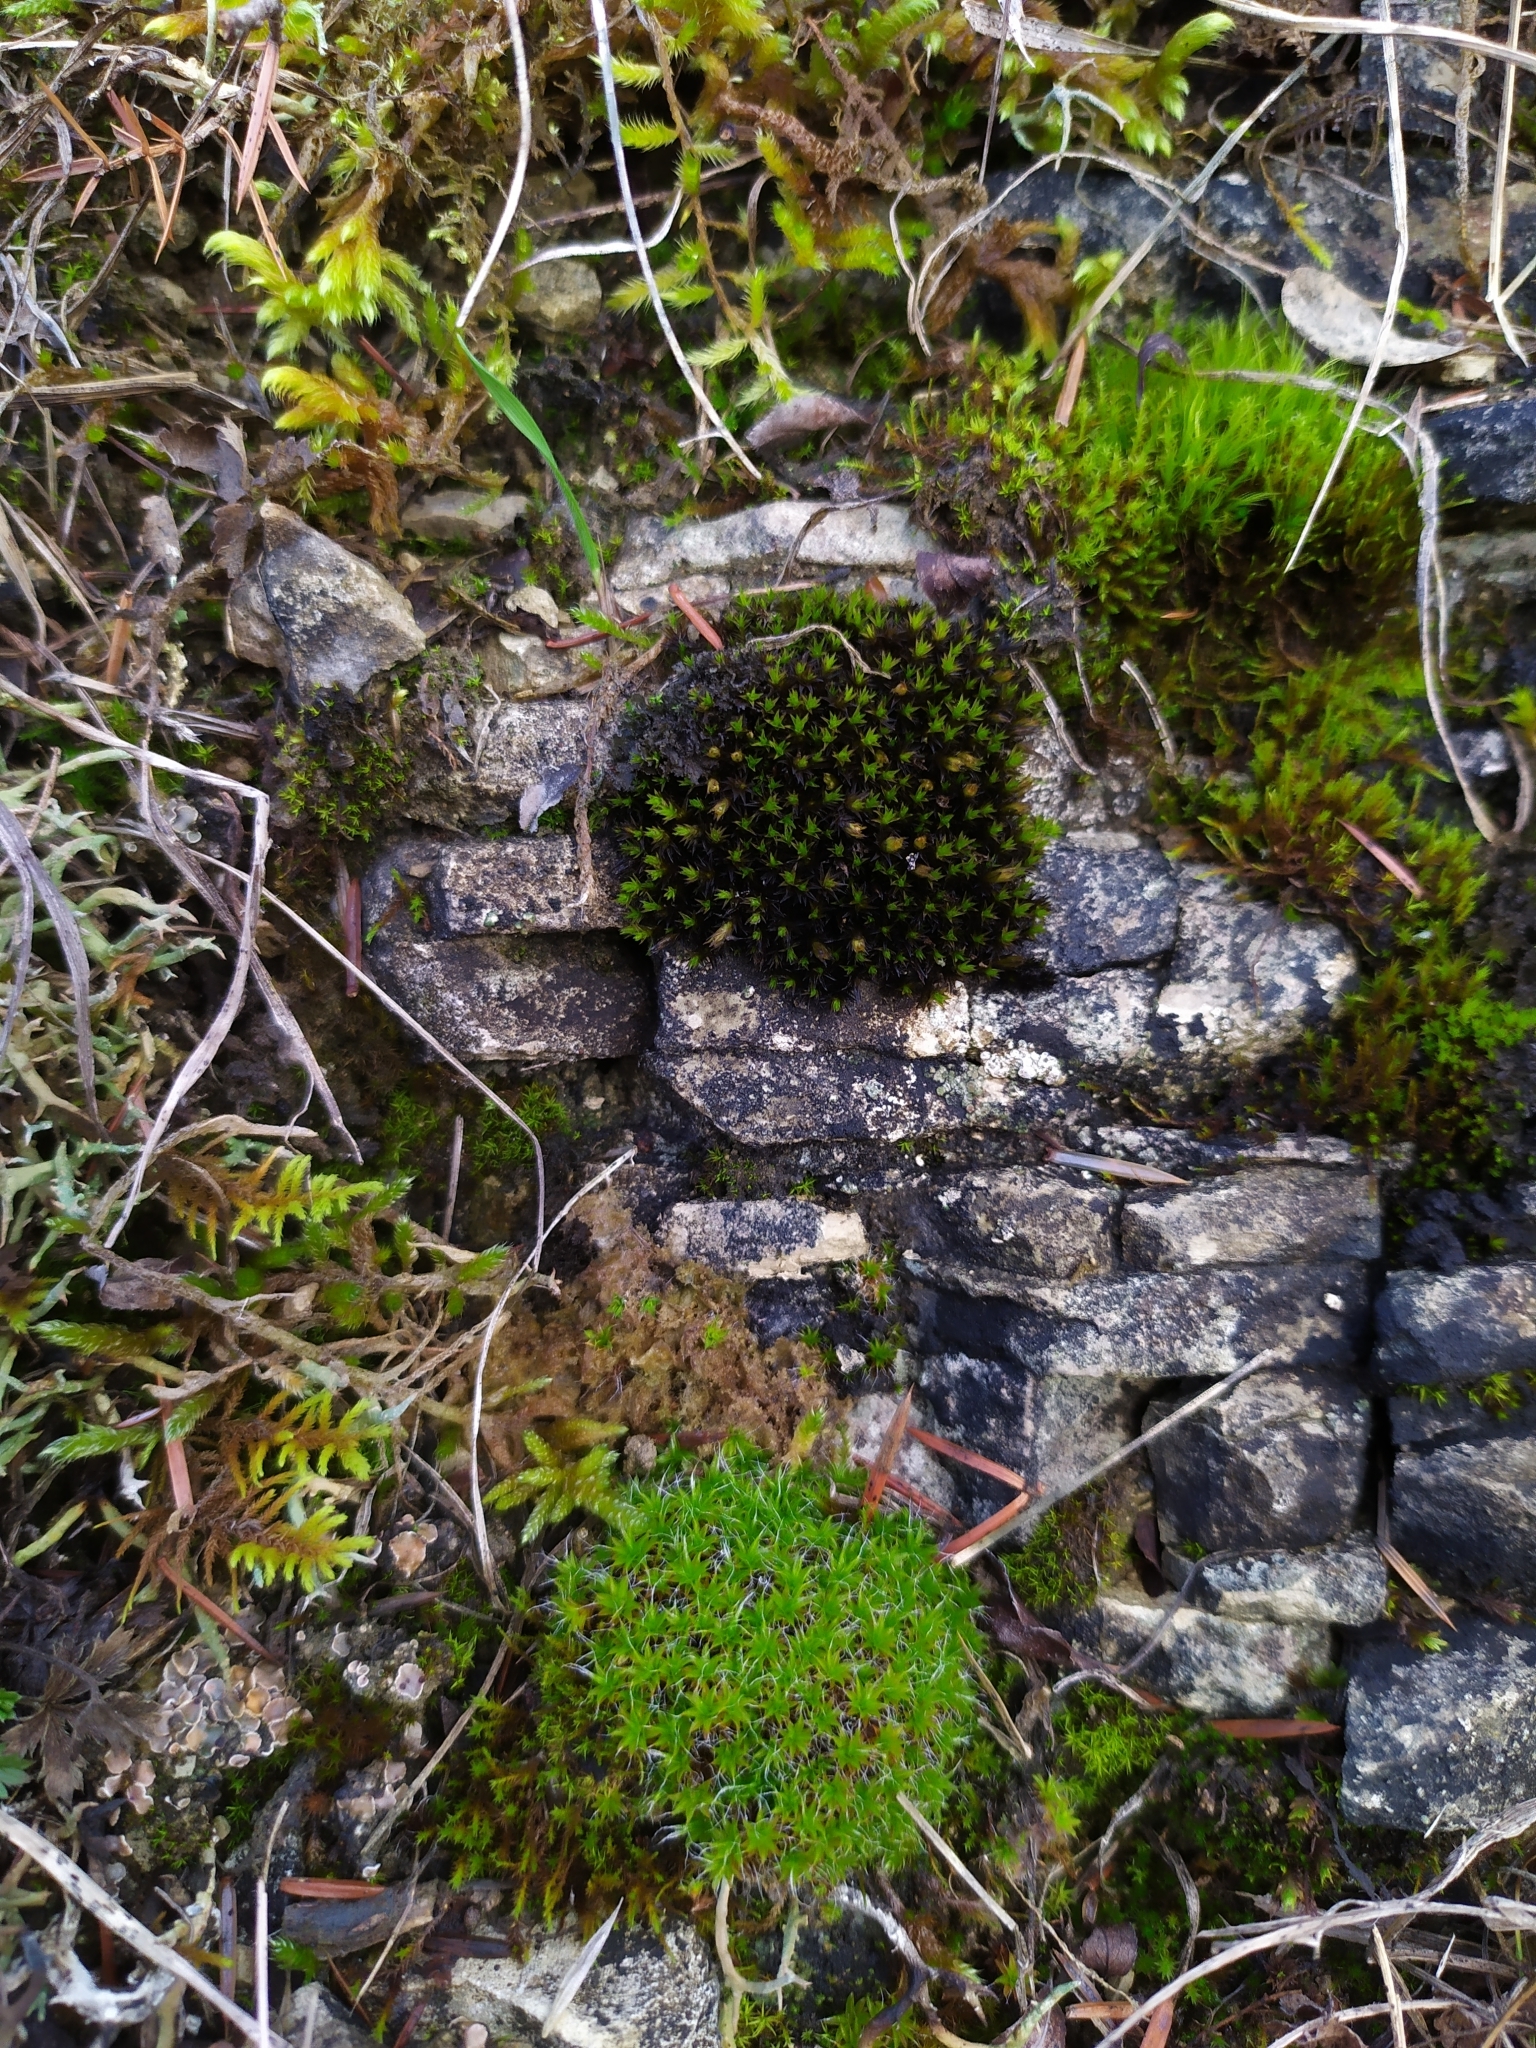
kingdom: Plantae
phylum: Bryophyta
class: Bryopsida
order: Pottiales
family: Pottiaceae
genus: Syntrichia
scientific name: Syntrichia ruralis
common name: Sidewalk screw moss
